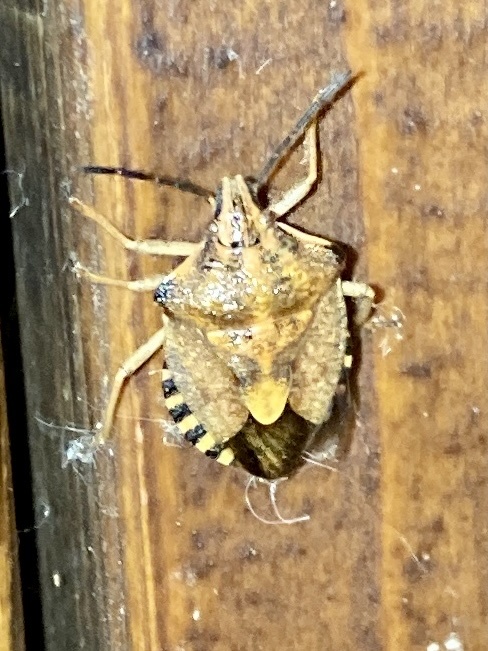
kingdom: Animalia
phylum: Arthropoda
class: Insecta
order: Hemiptera
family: Pentatomidae
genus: Carpocoris
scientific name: Carpocoris purpureipennis
